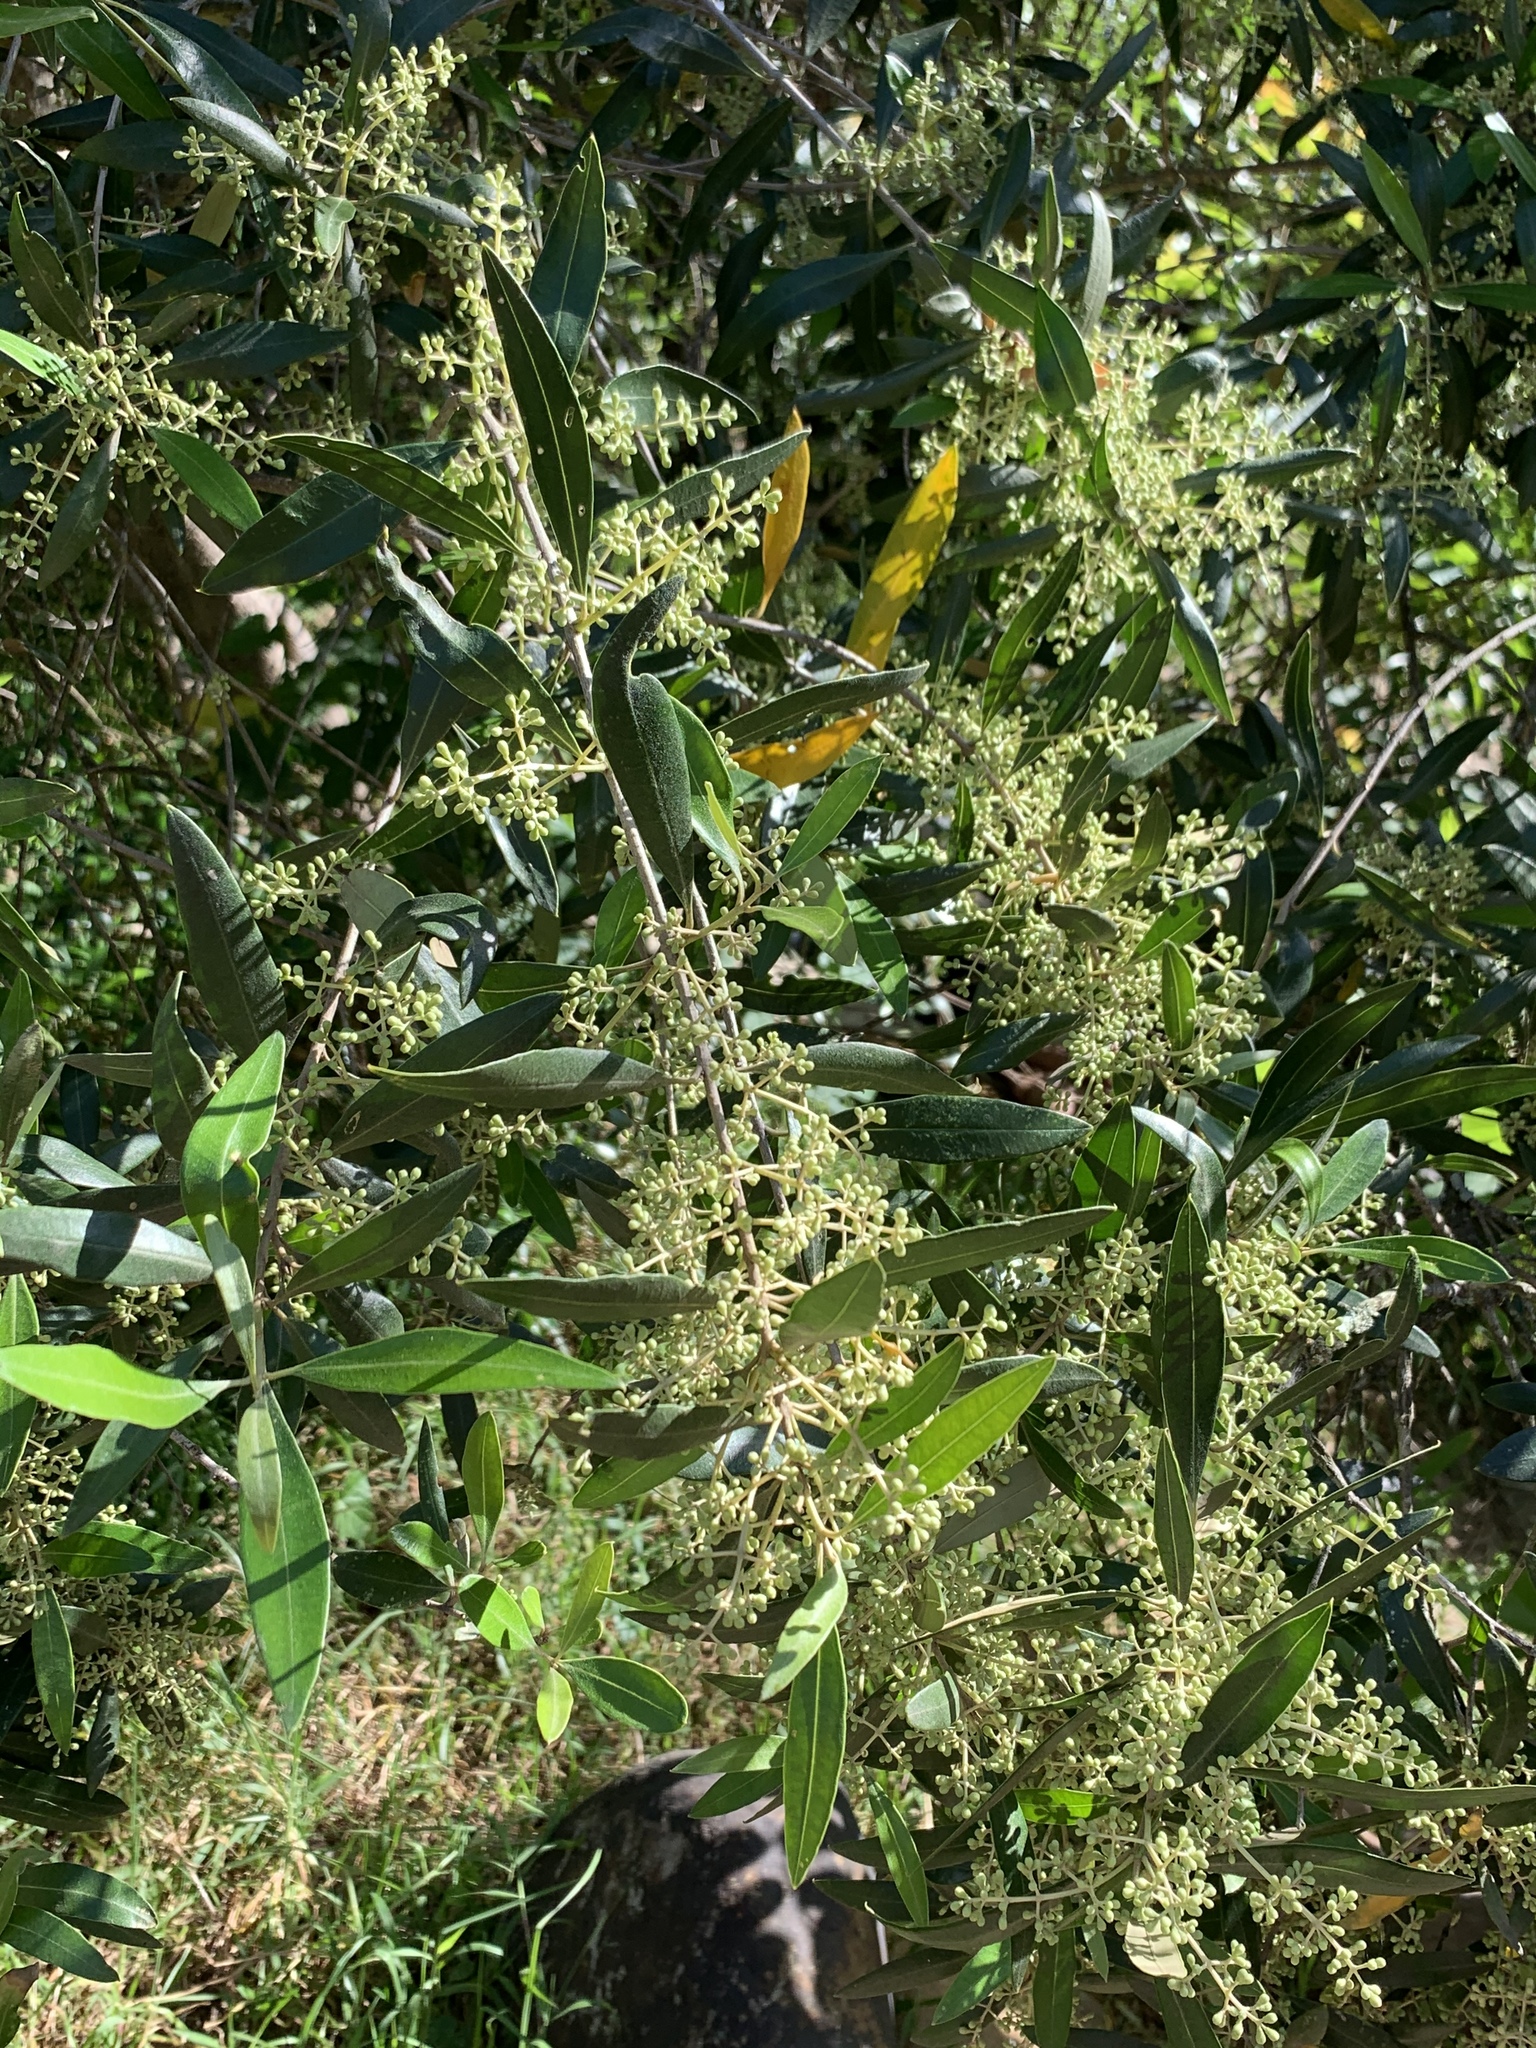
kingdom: Plantae
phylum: Tracheophyta
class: Magnoliopsida
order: Lamiales
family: Oleaceae
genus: Olea
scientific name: Olea europaea
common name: Olive
